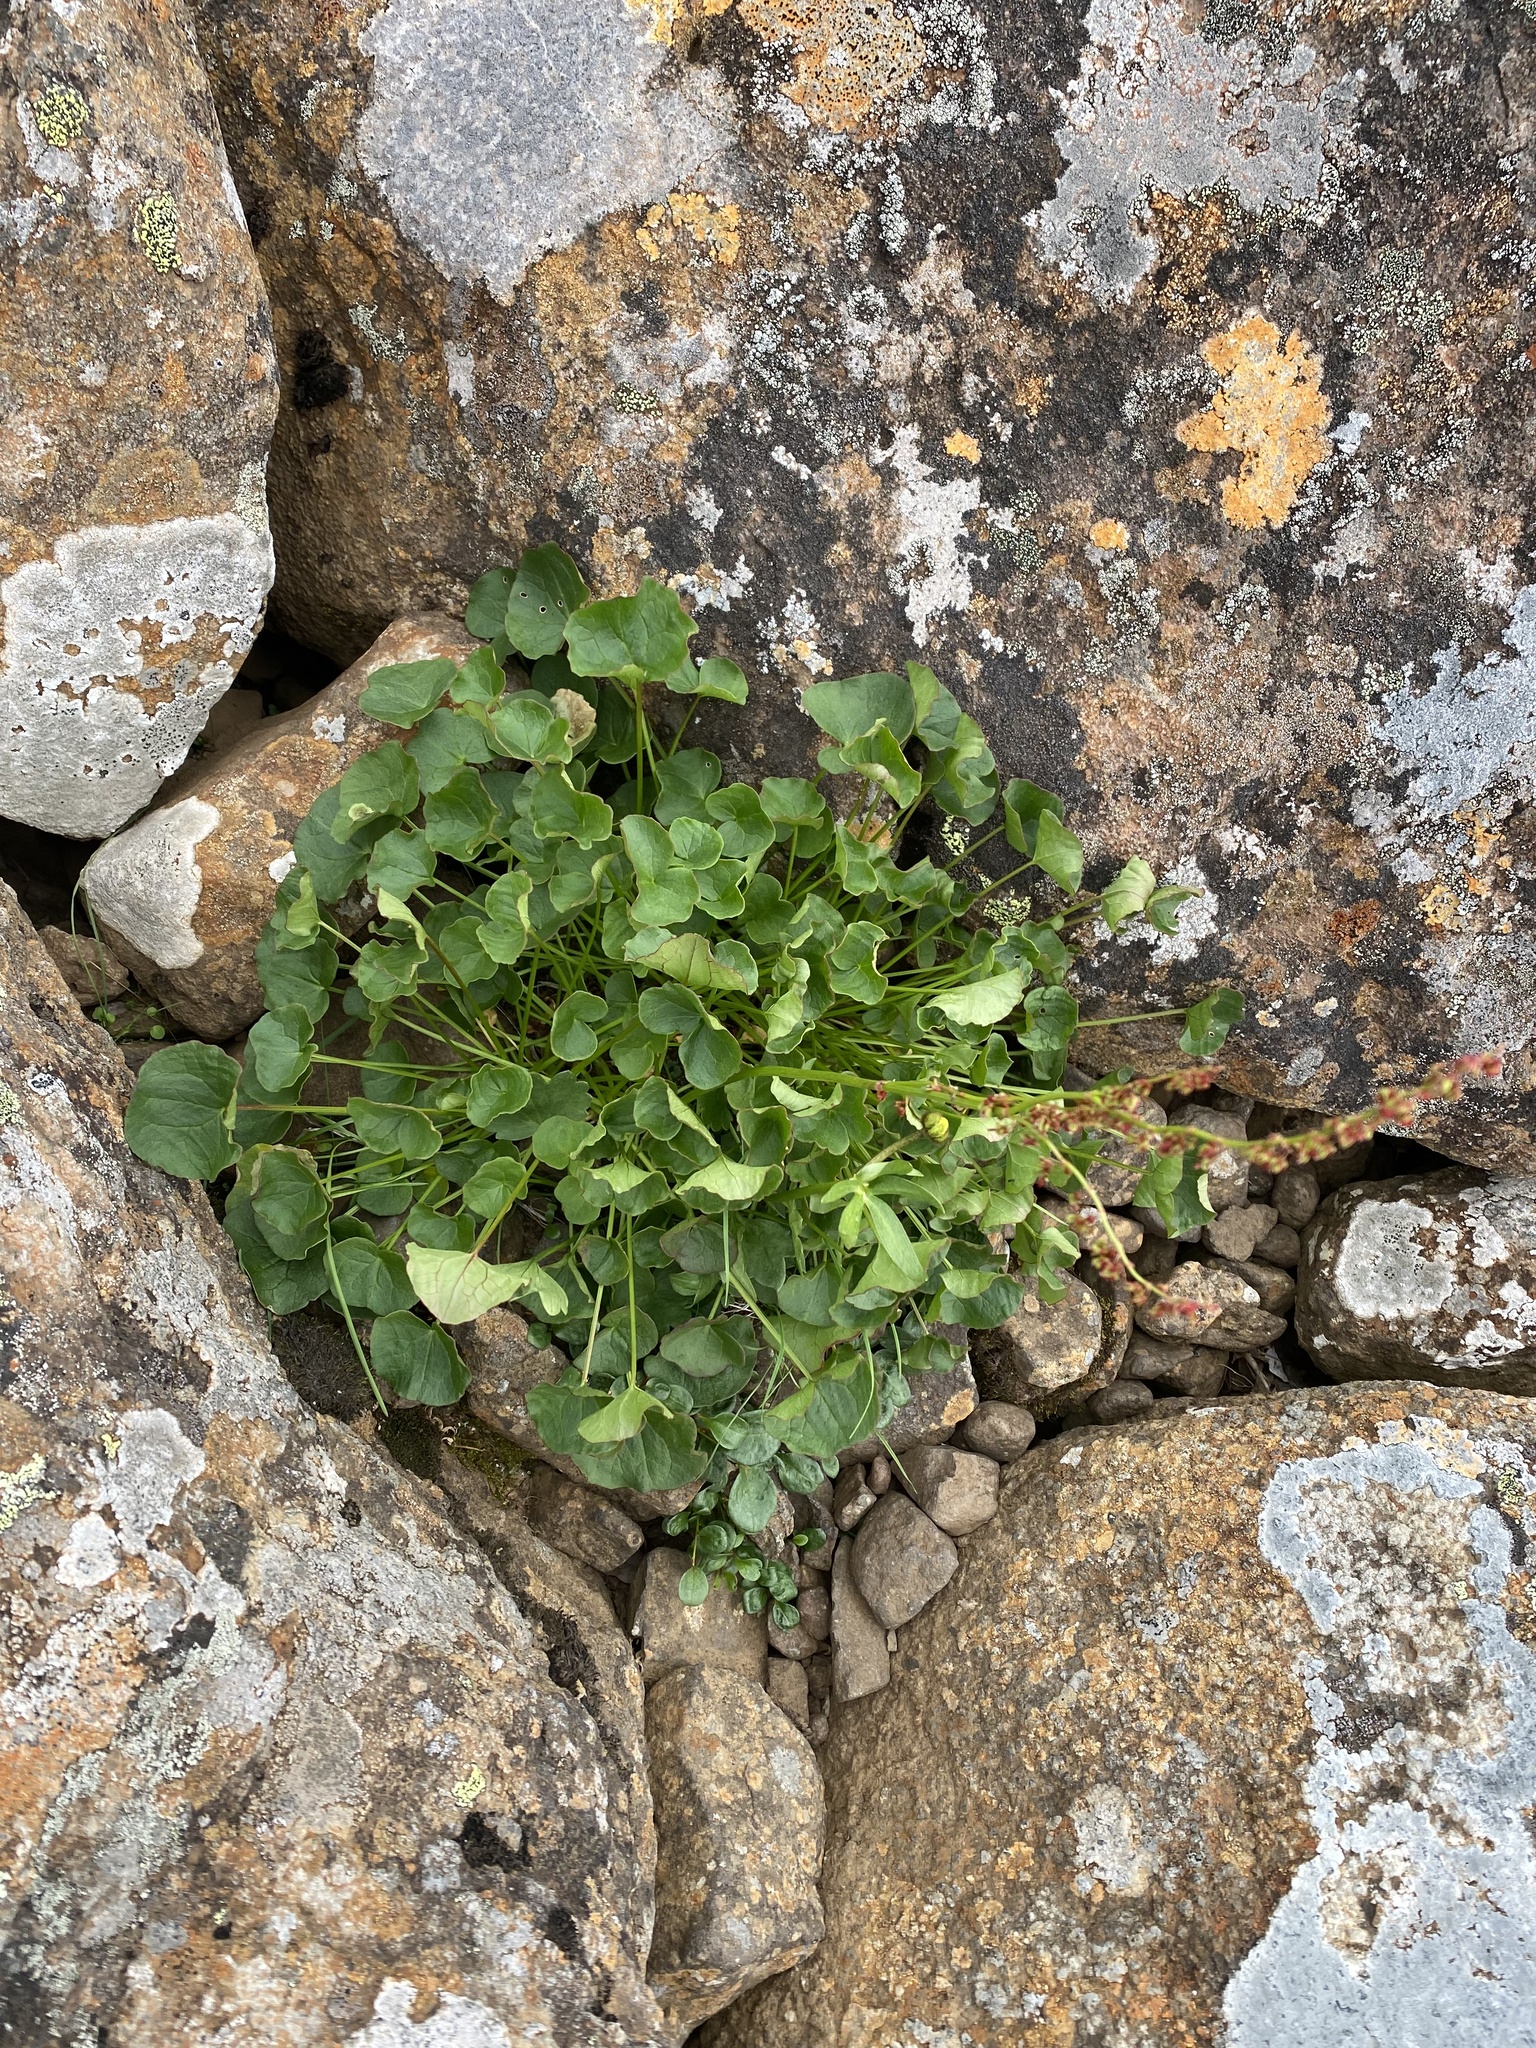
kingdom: Plantae
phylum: Tracheophyta
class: Magnoliopsida
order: Caryophyllales
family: Polygonaceae
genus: Oxyria
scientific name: Oxyria digyna
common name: Alpine mountain-sorrel
